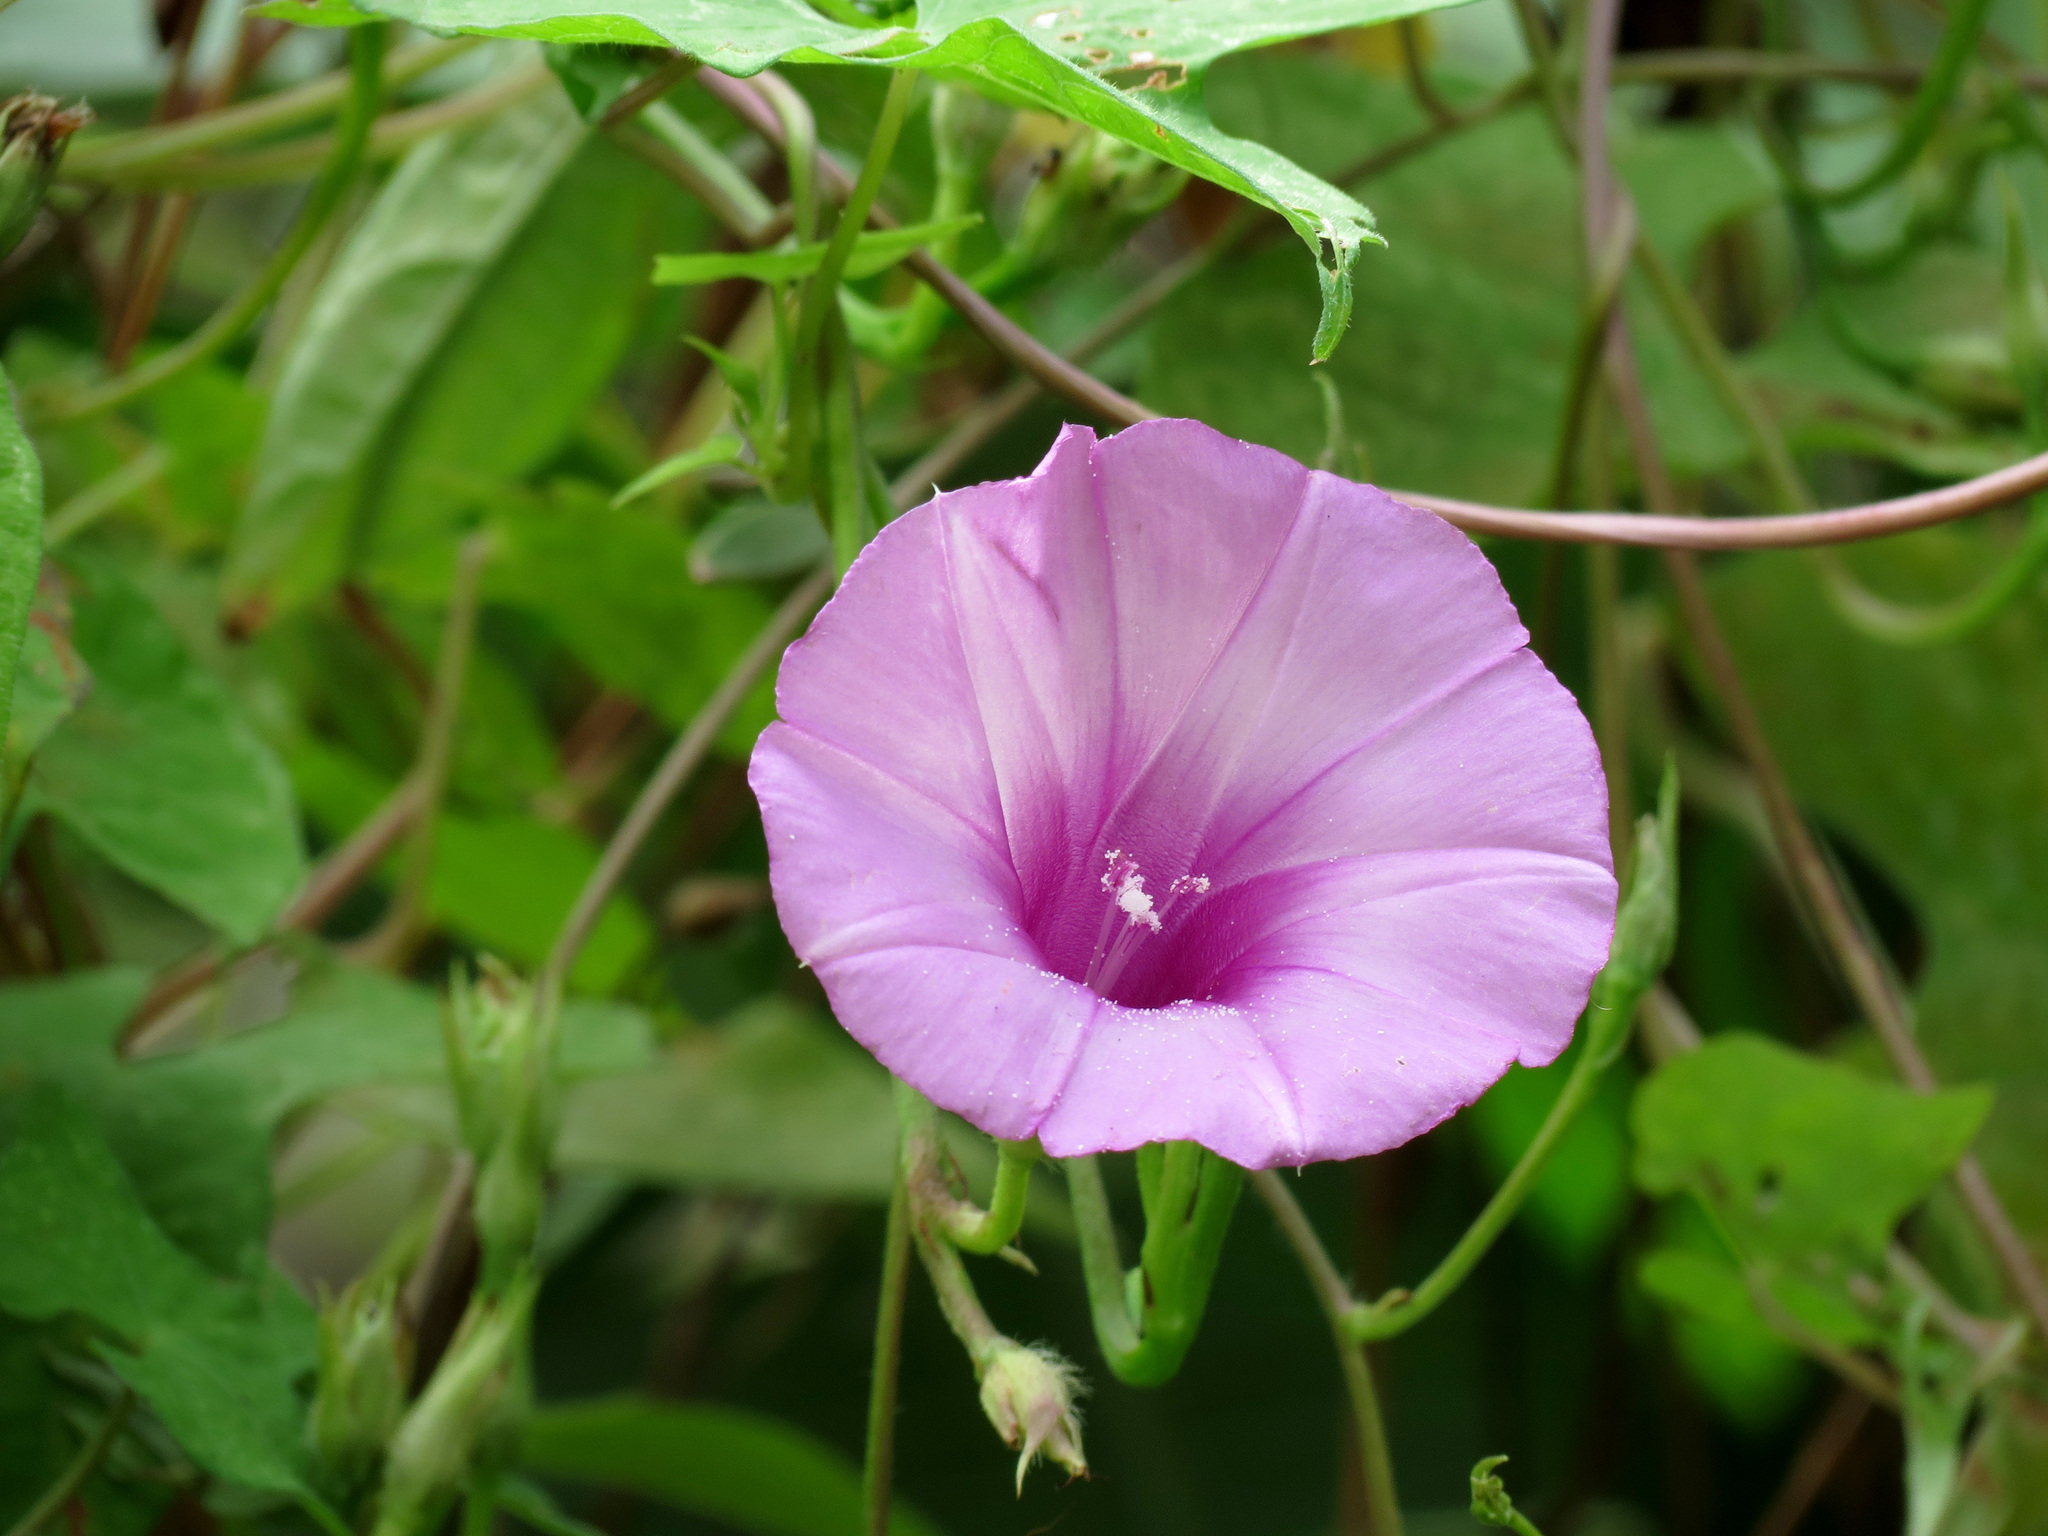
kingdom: Plantae
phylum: Tracheophyta
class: Magnoliopsida
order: Solanales
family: Convolvulaceae
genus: Ipomoea
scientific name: Ipomoea cordatotriloba
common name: Cotton morning glory
